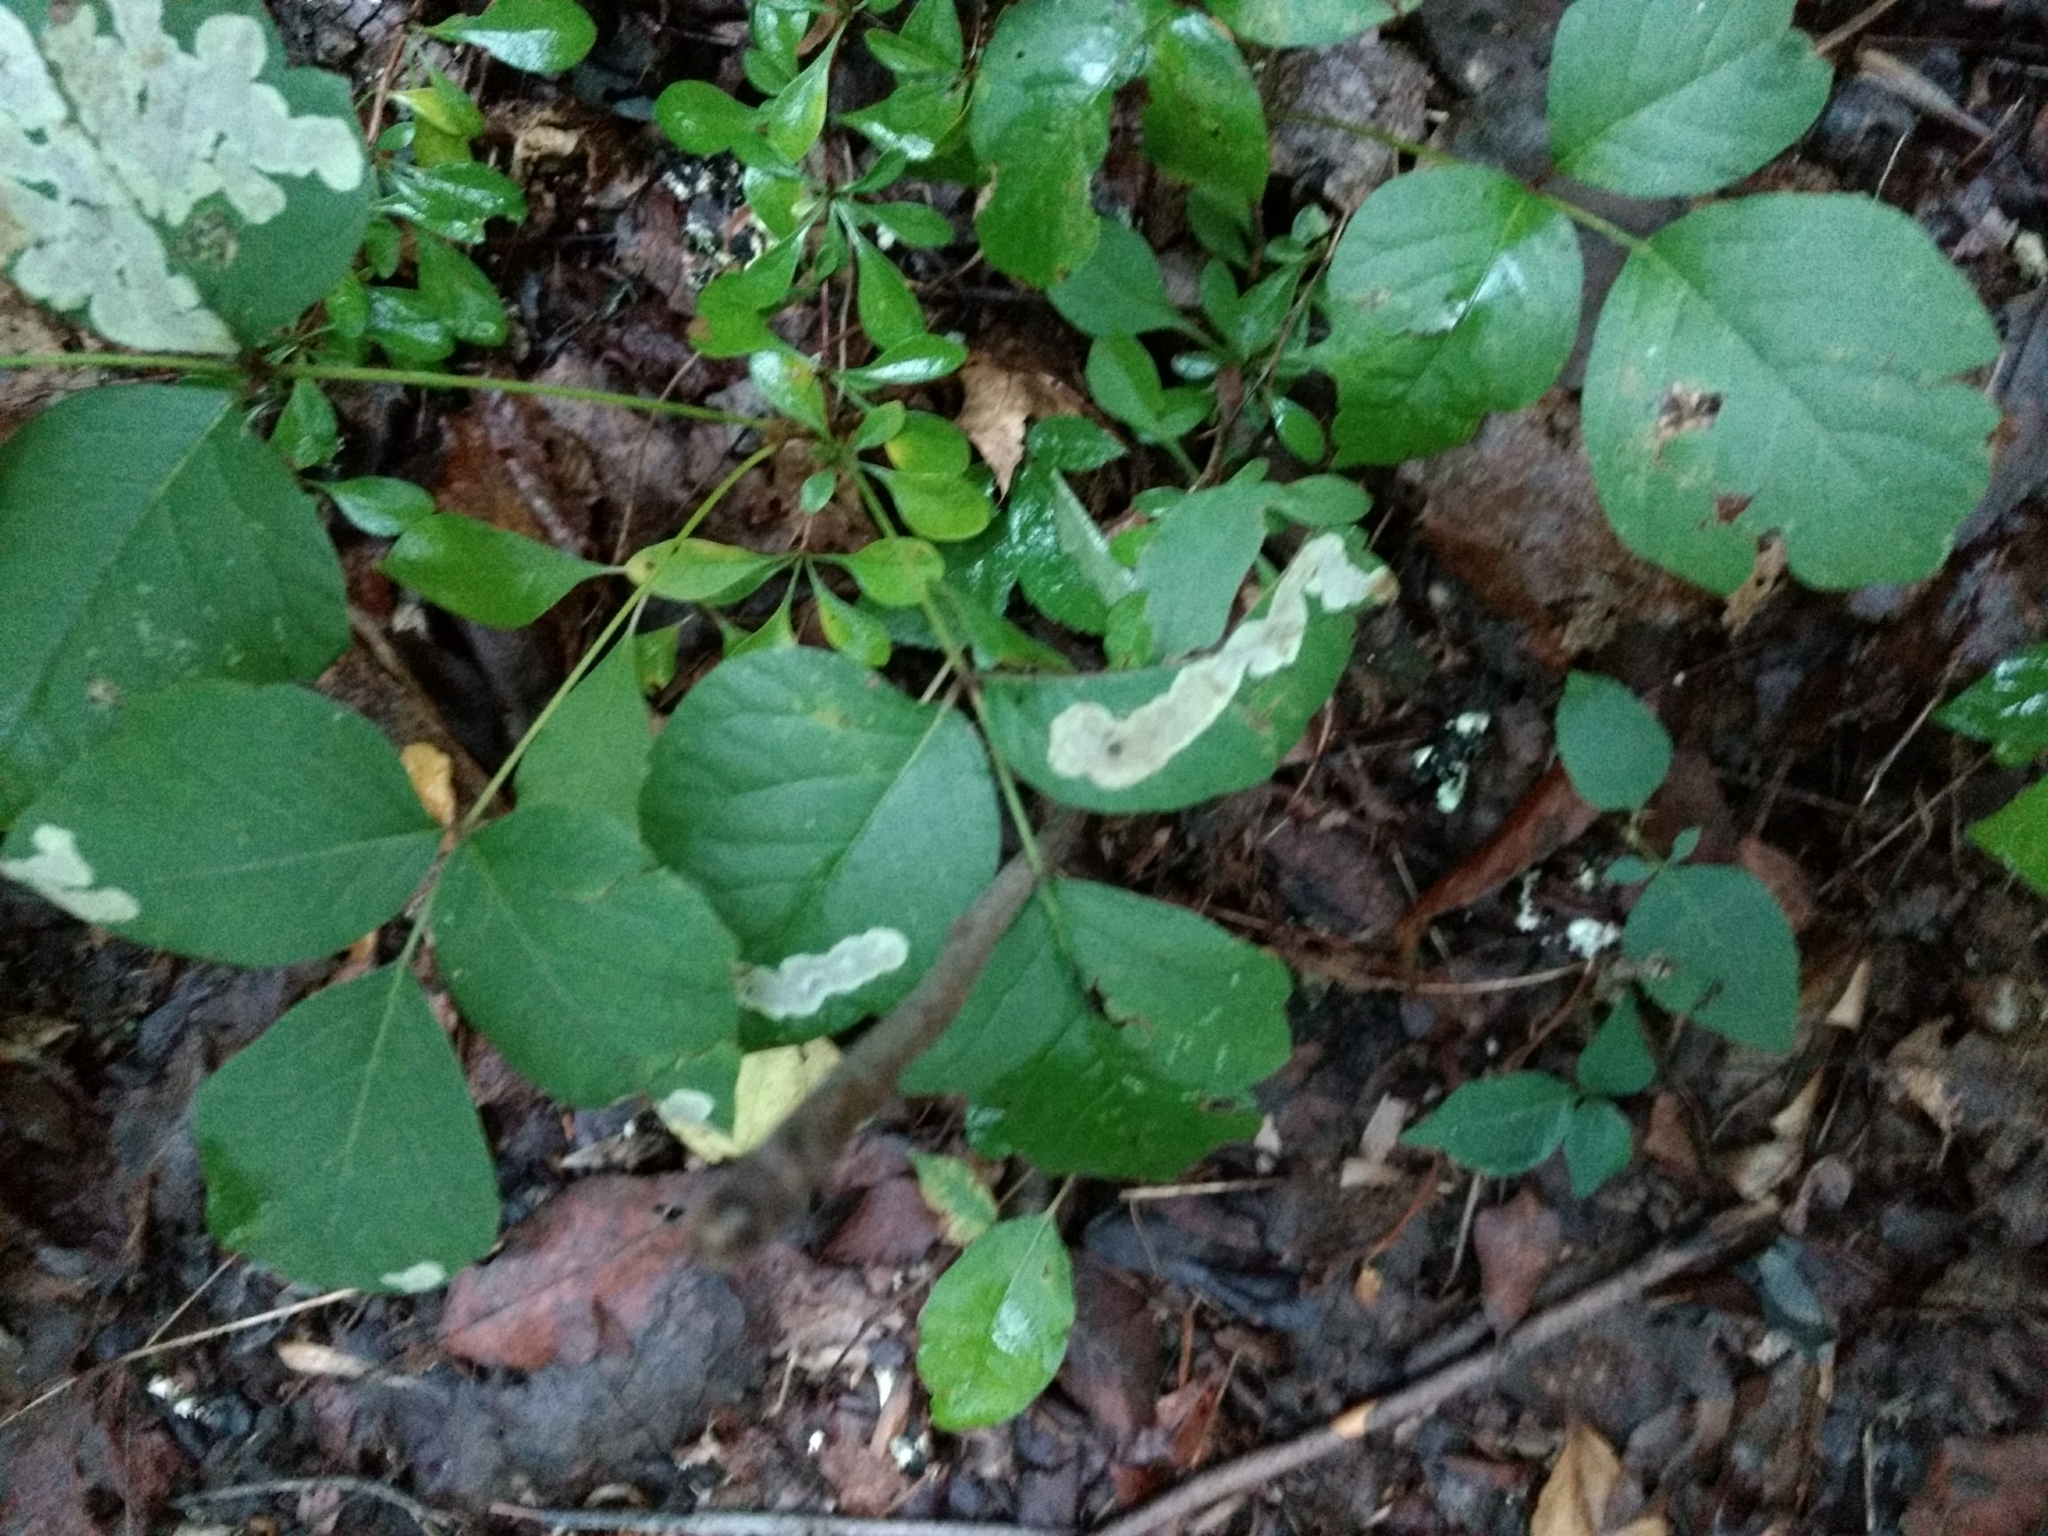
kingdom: Animalia
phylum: Arthropoda
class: Insecta
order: Lepidoptera
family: Gracillariidae
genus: Cameraria
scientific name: Cameraria guttifinitella
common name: Poison ivy leaf-miner moth
